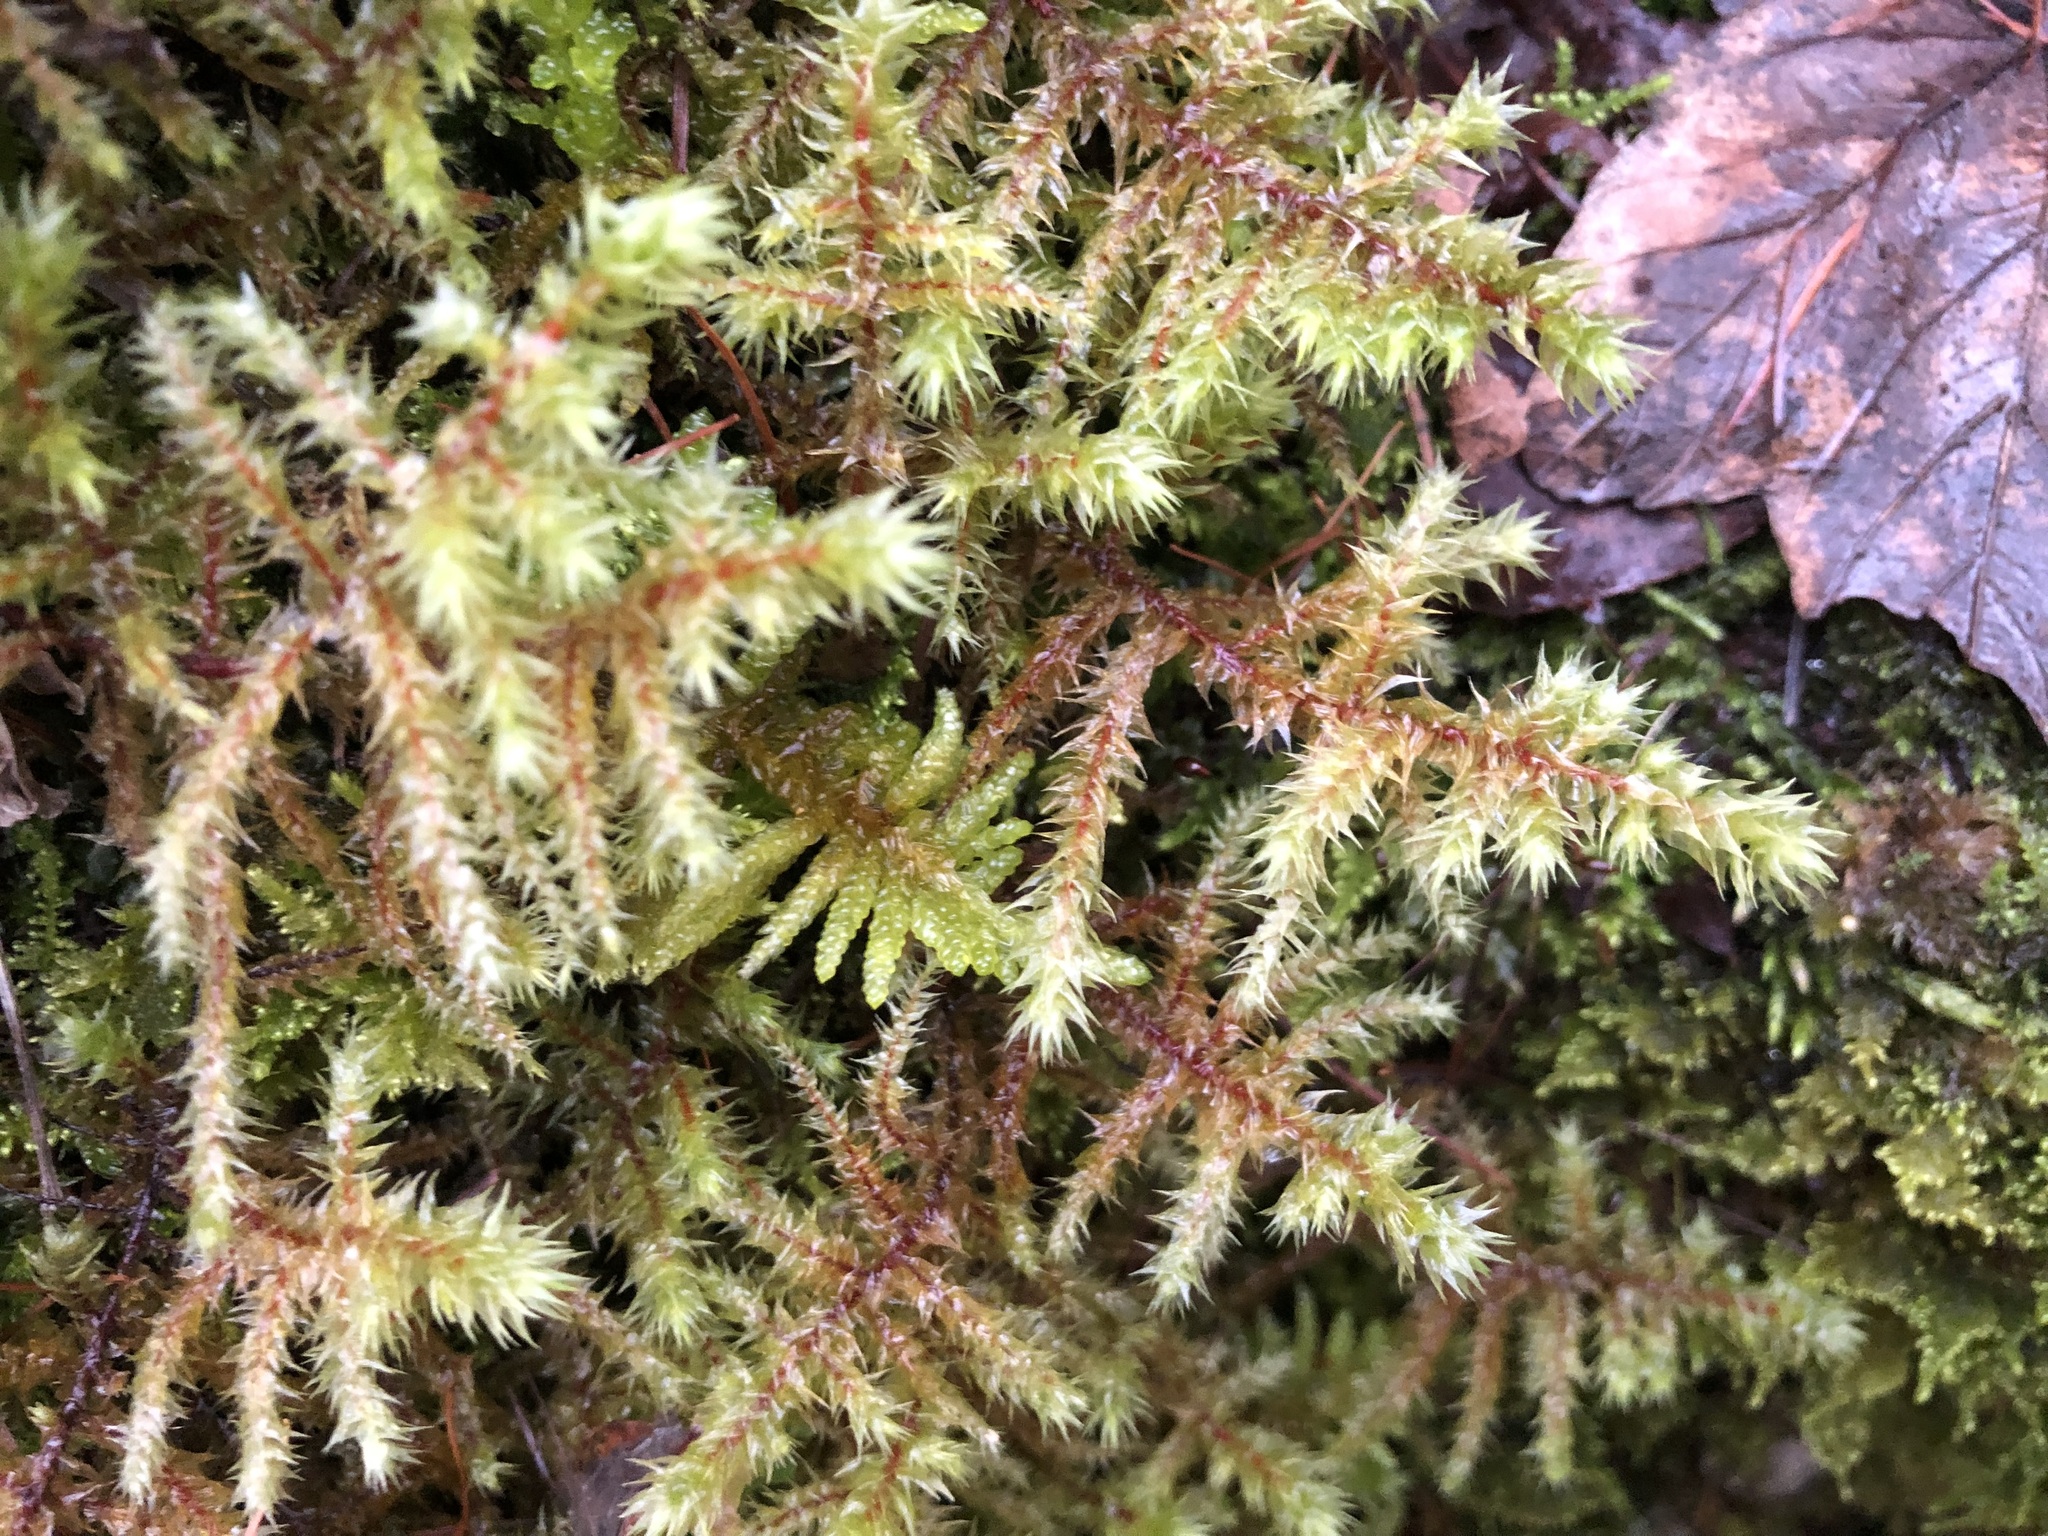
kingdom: Plantae
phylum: Bryophyta
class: Bryopsida
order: Hypnales
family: Hylocomiaceae
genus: Hylocomiadelphus
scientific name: Hylocomiadelphus triquetrus
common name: Rough goose neck moss
